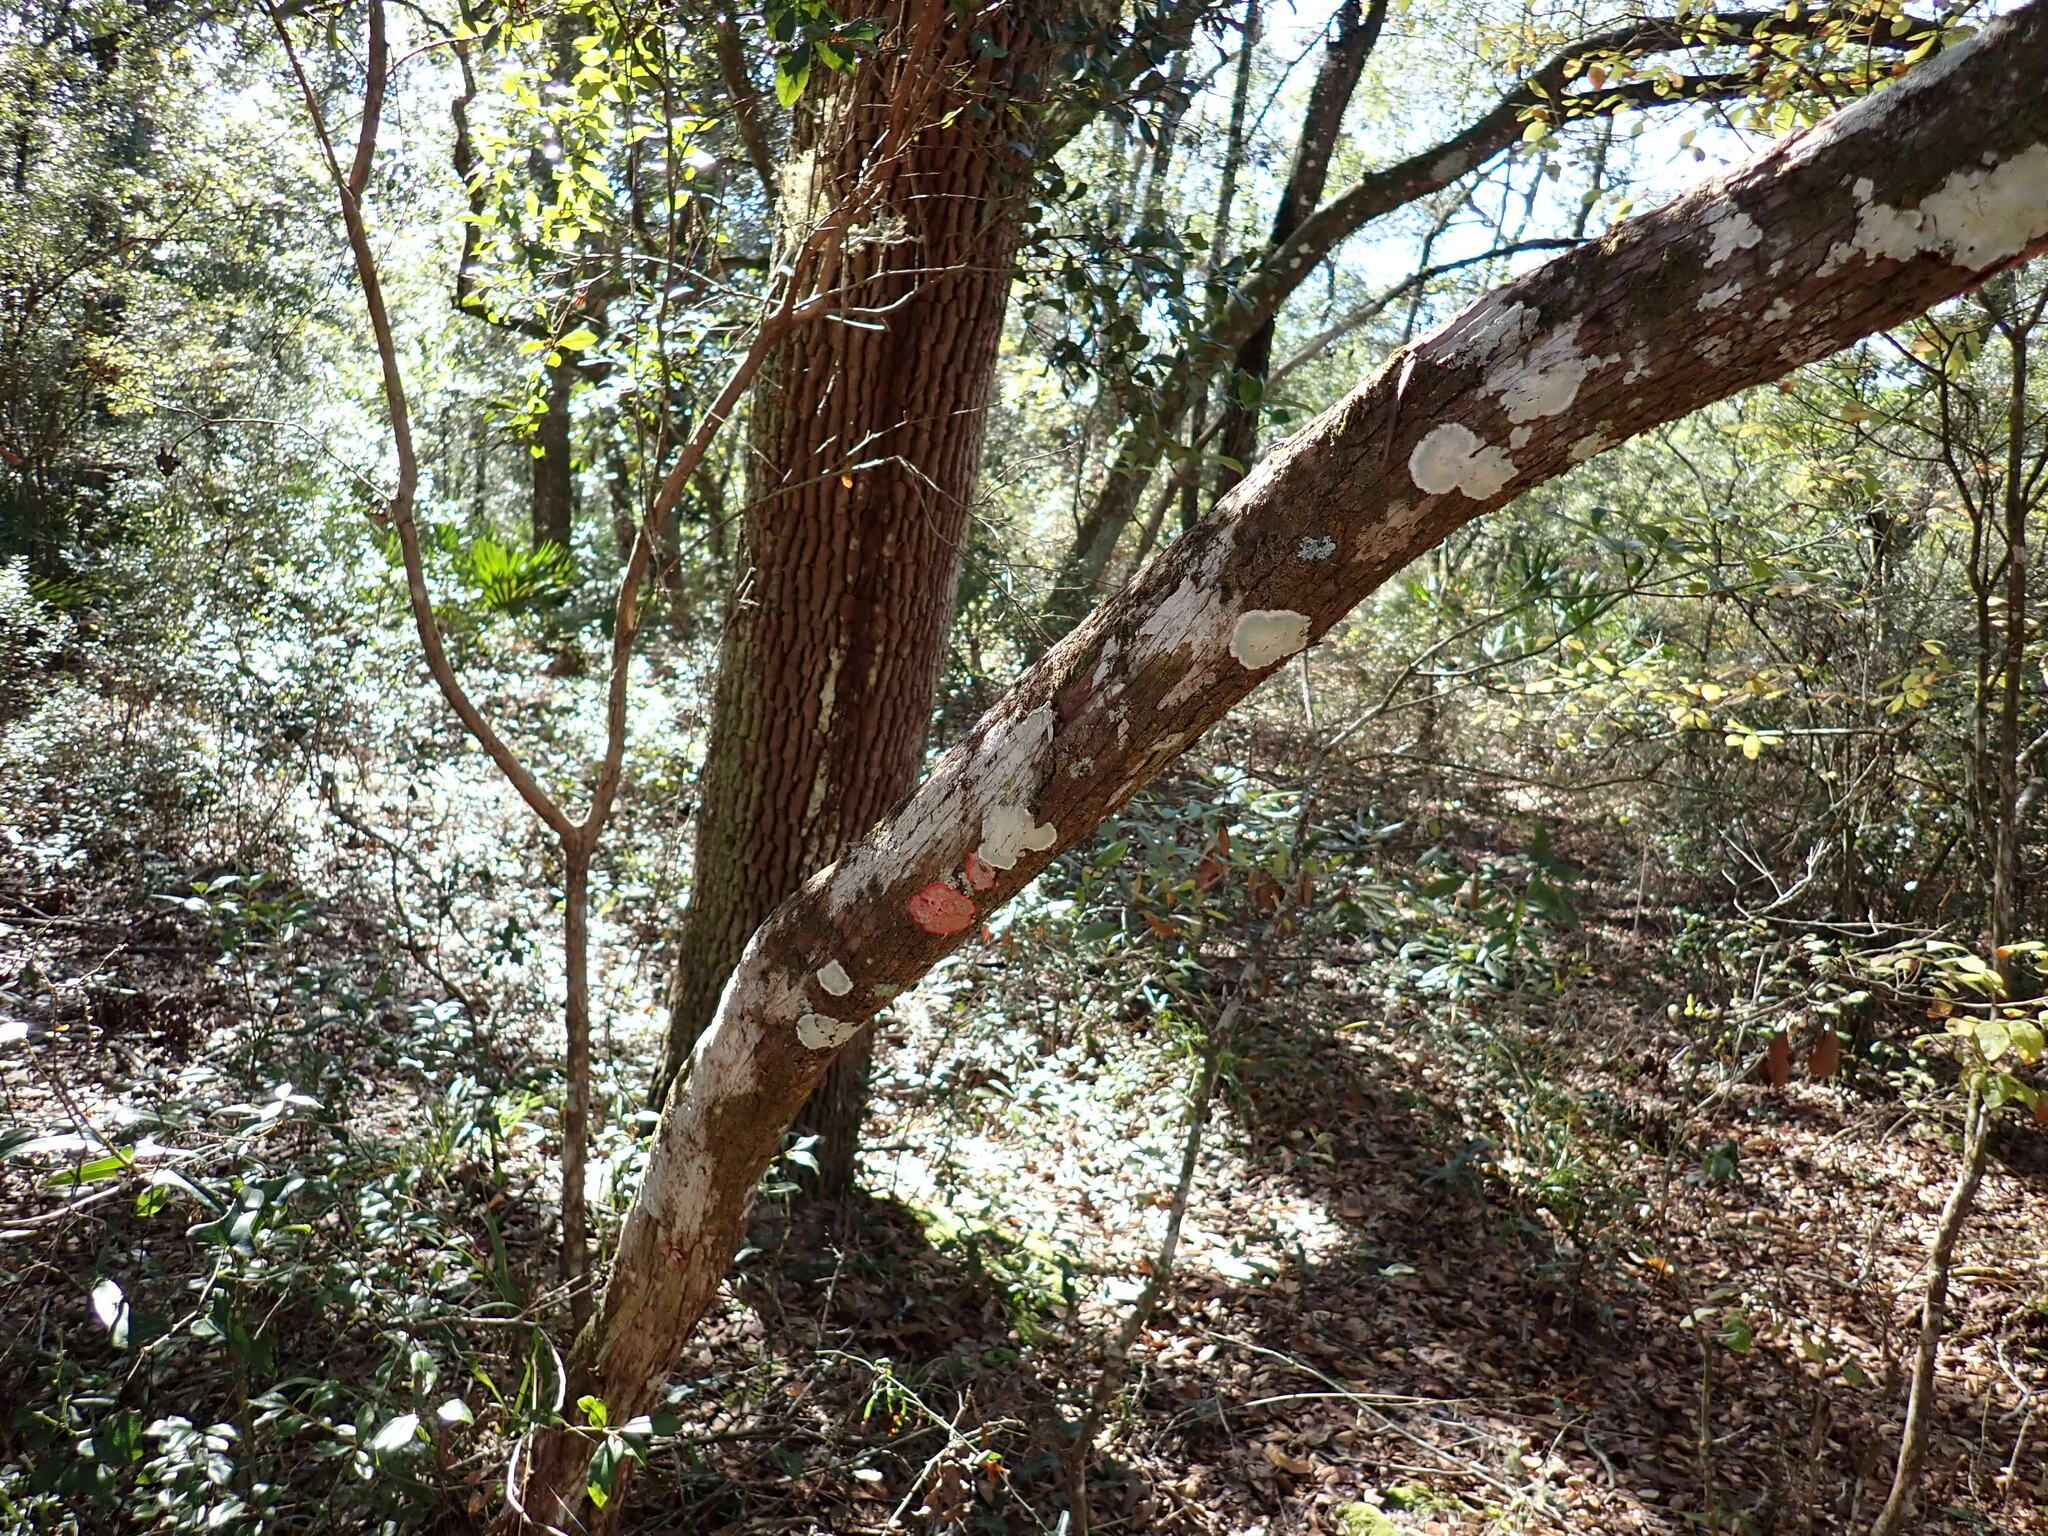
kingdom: Fungi
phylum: Ascomycota
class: Arthoniomycetes
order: Arthoniales
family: Arthoniaceae
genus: Herpothallon
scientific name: Herpothallon rubrocinctum
